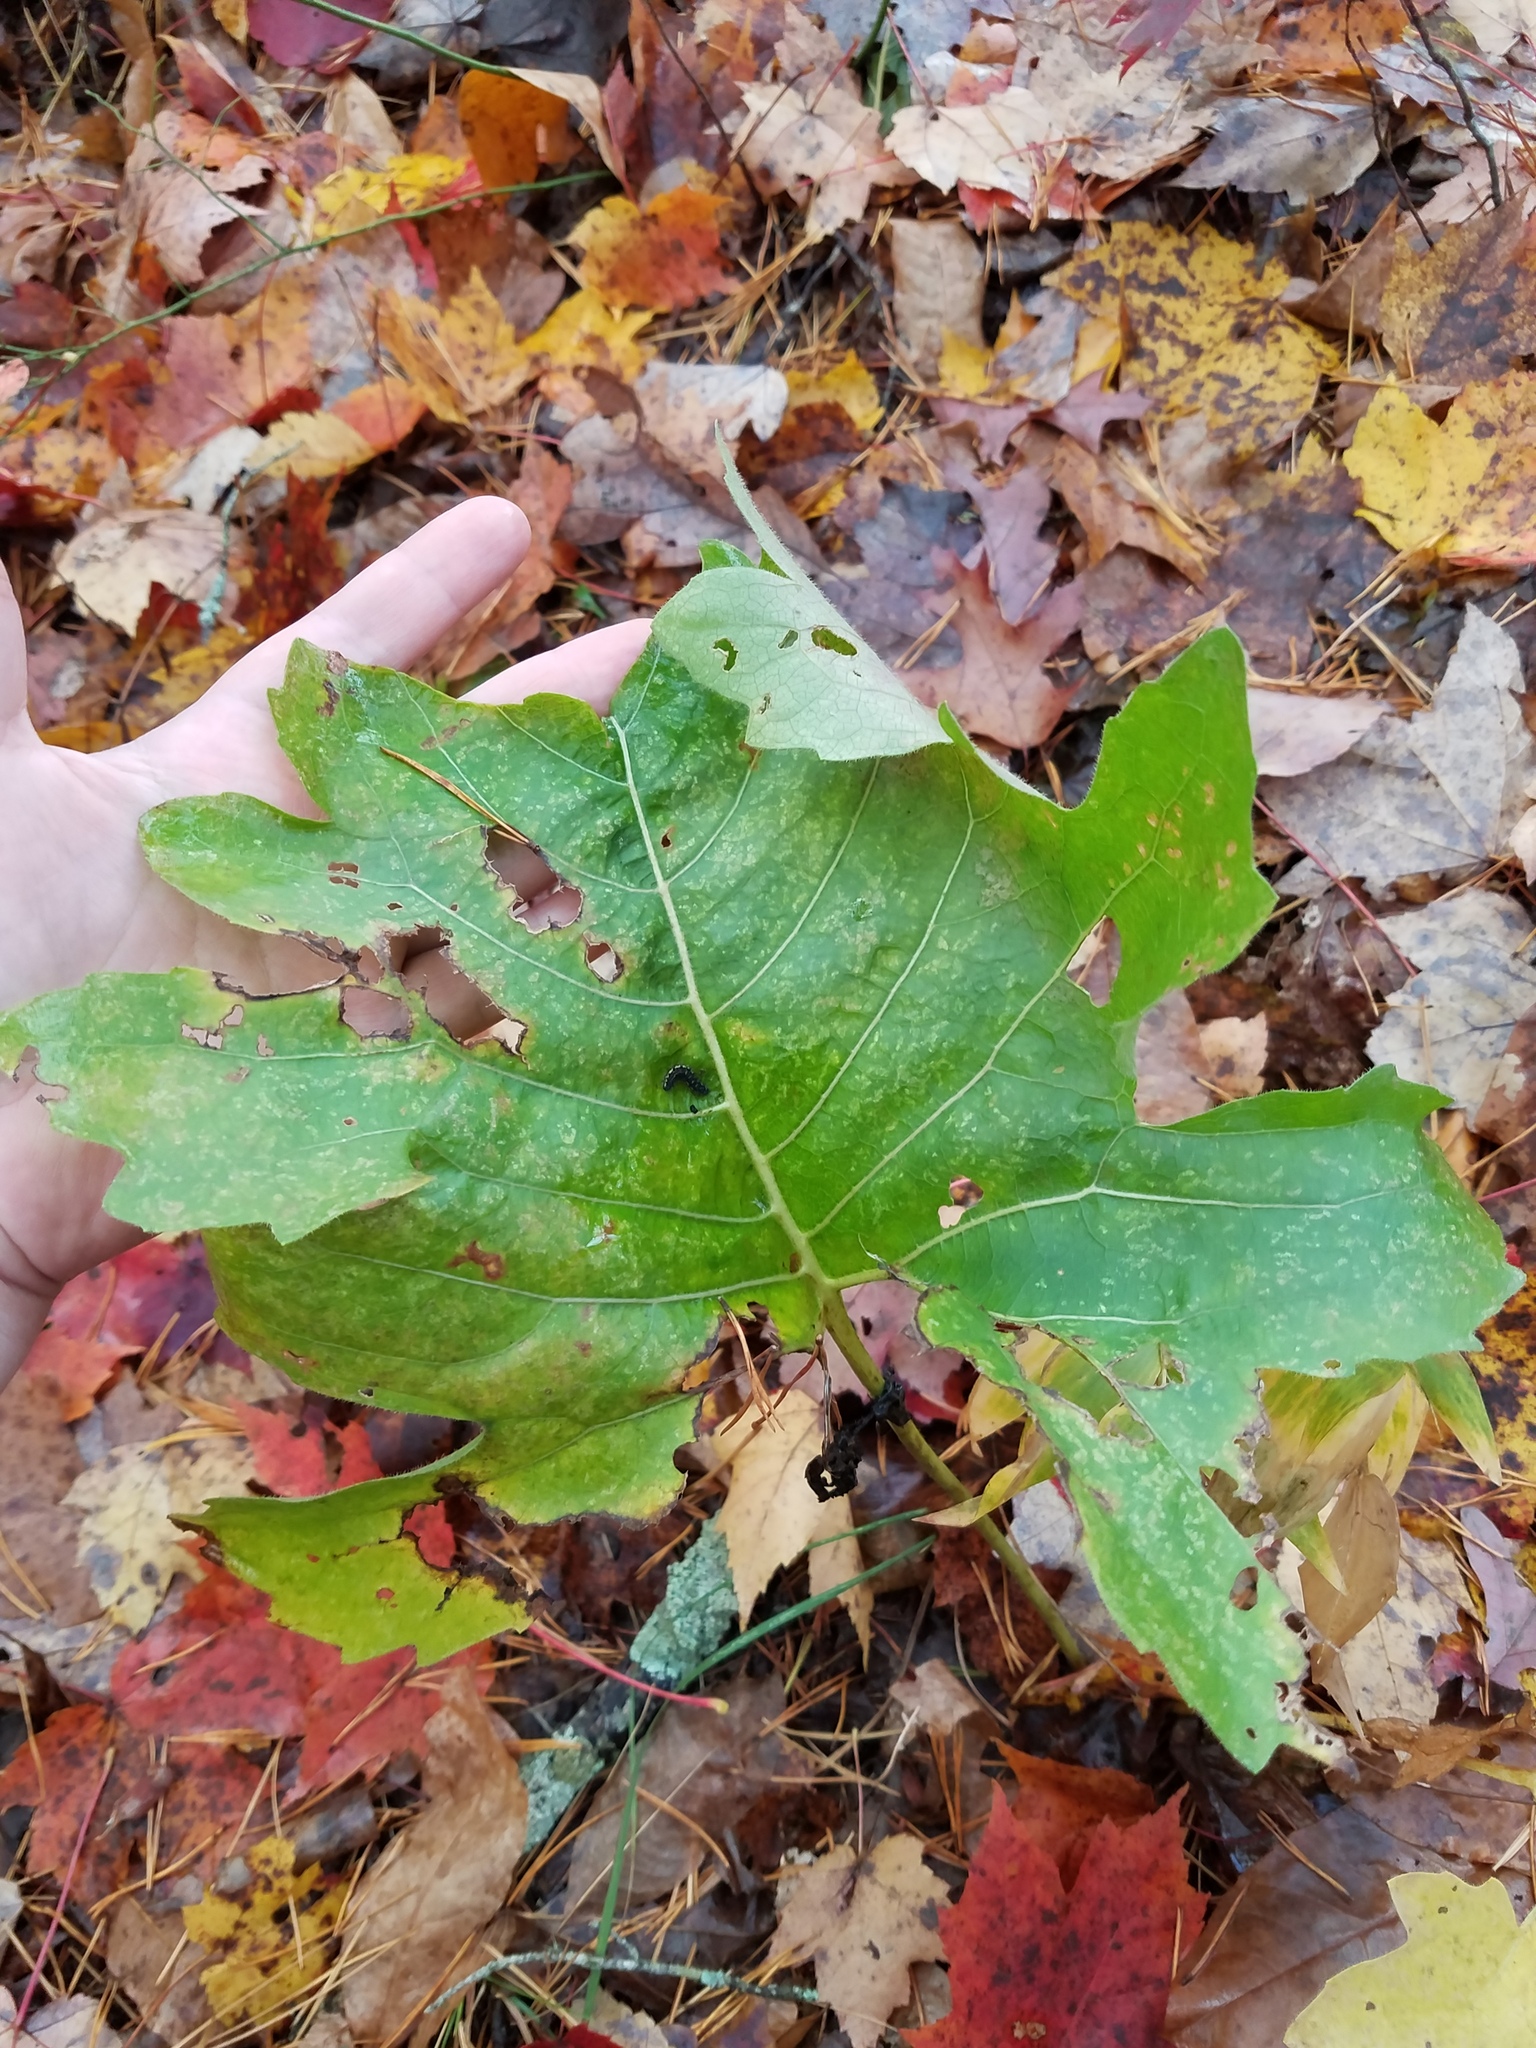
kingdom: Plantae
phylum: Tracheophyta
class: Magnoliopsida
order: Asterales
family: Asteraceae
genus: Silphium
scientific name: Silphium compositum
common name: Lesser basal-leaf rosinweed
